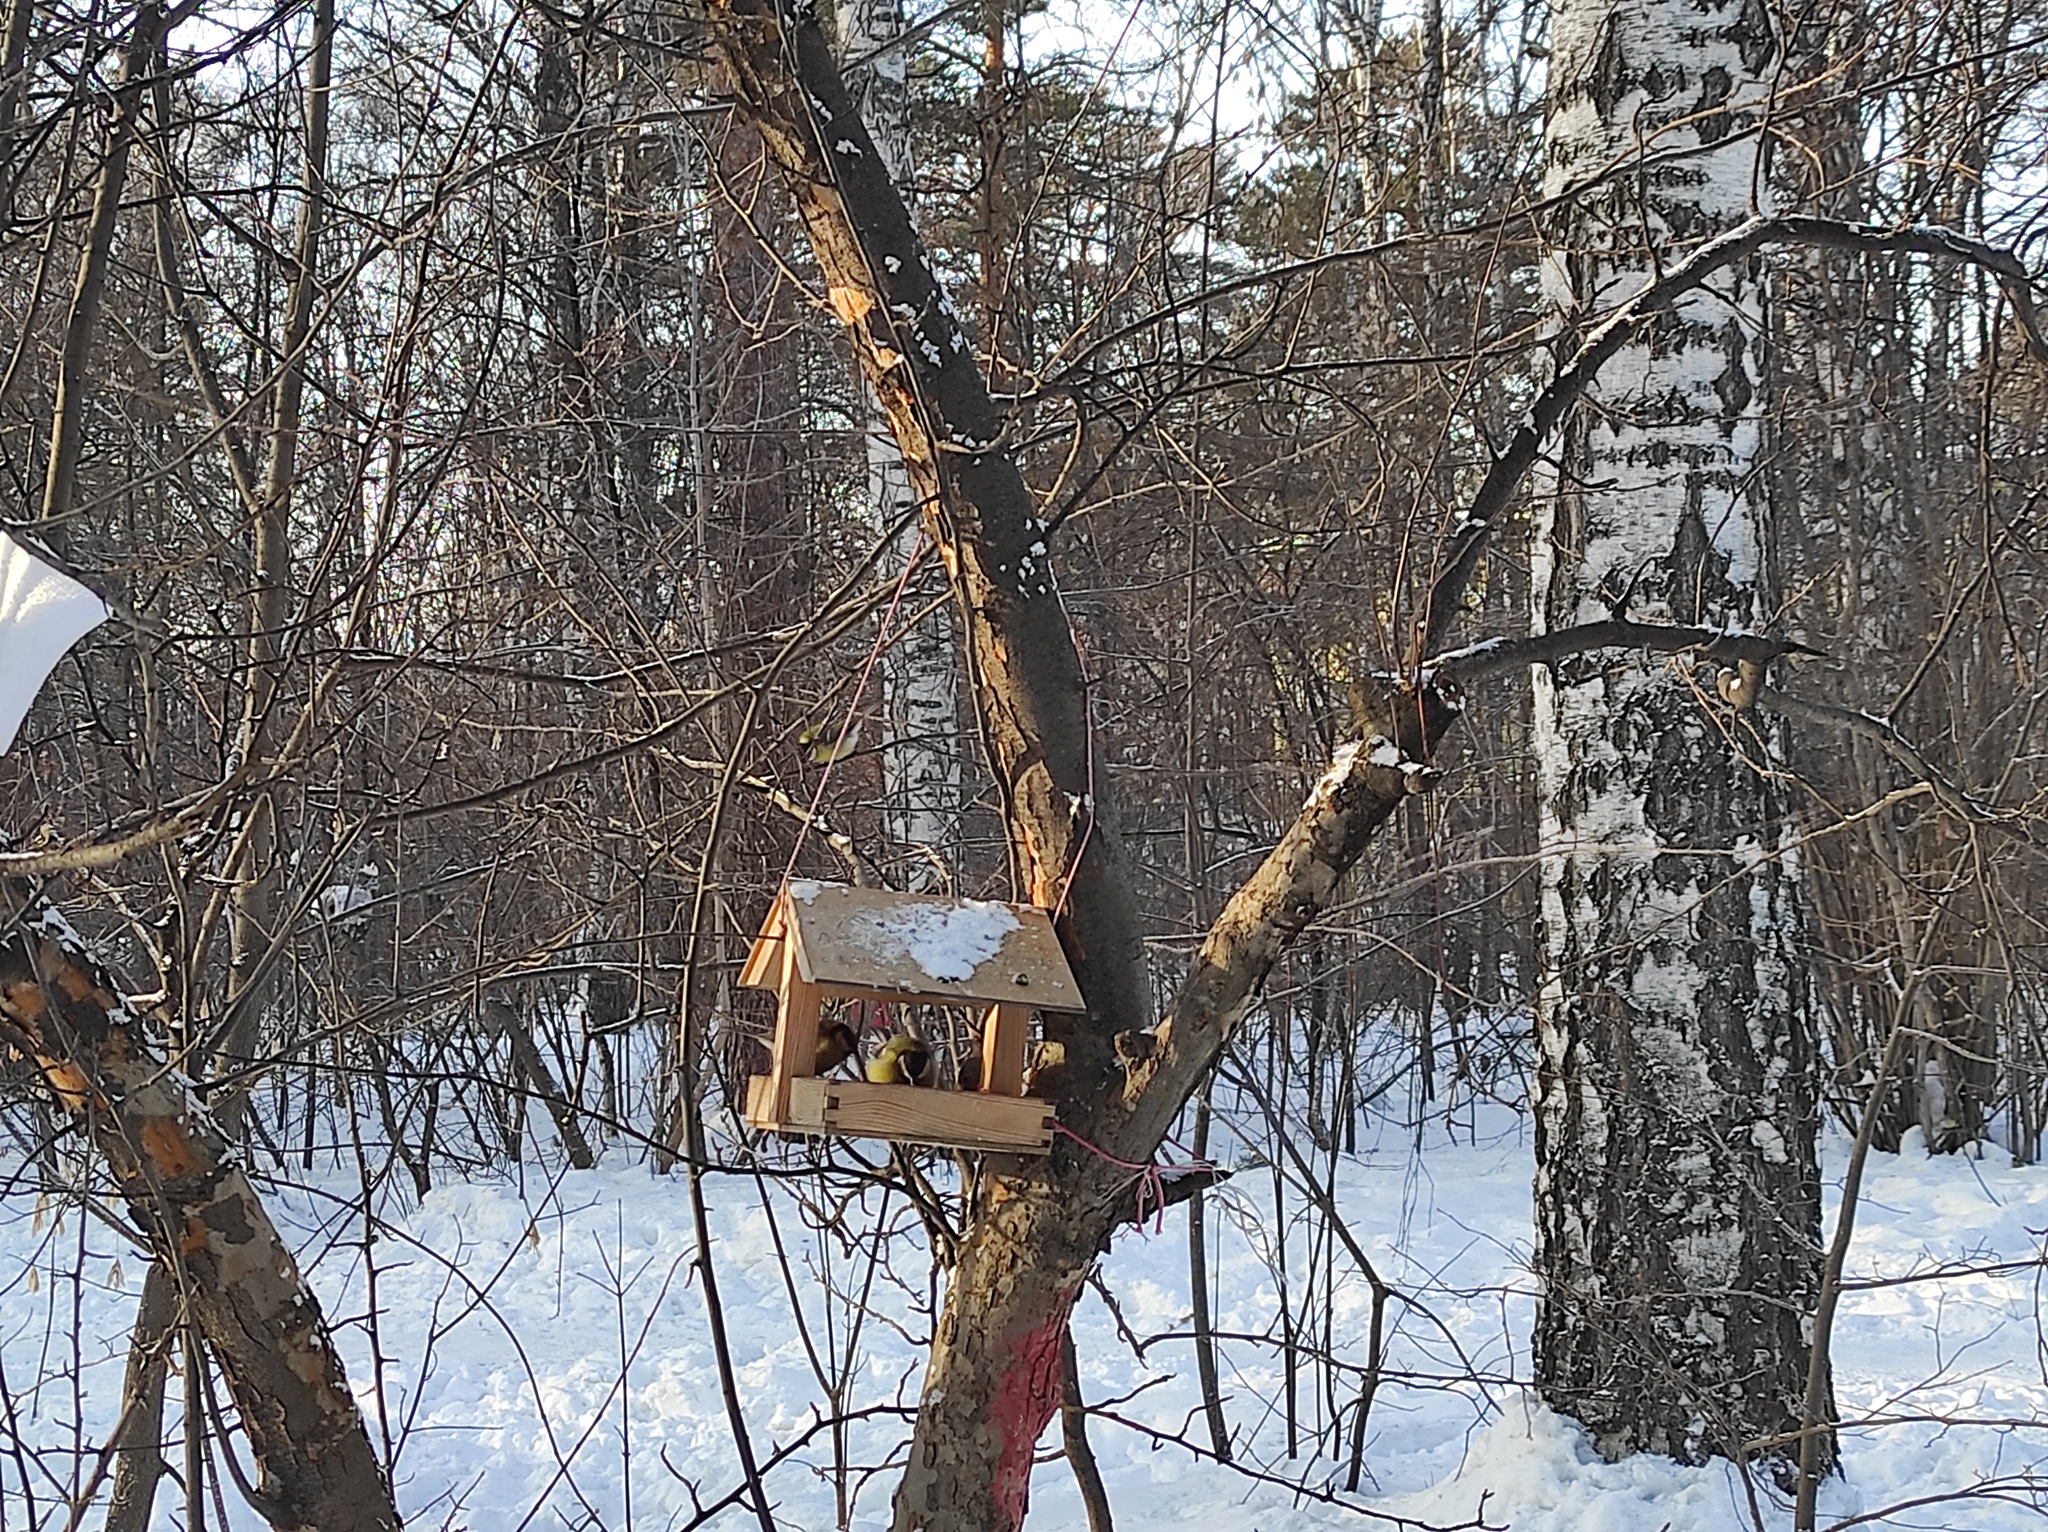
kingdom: Animalia
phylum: Chordata
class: Aves
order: Passeriformes
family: Paridae
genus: Parus
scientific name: Parus major
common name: Great tit
